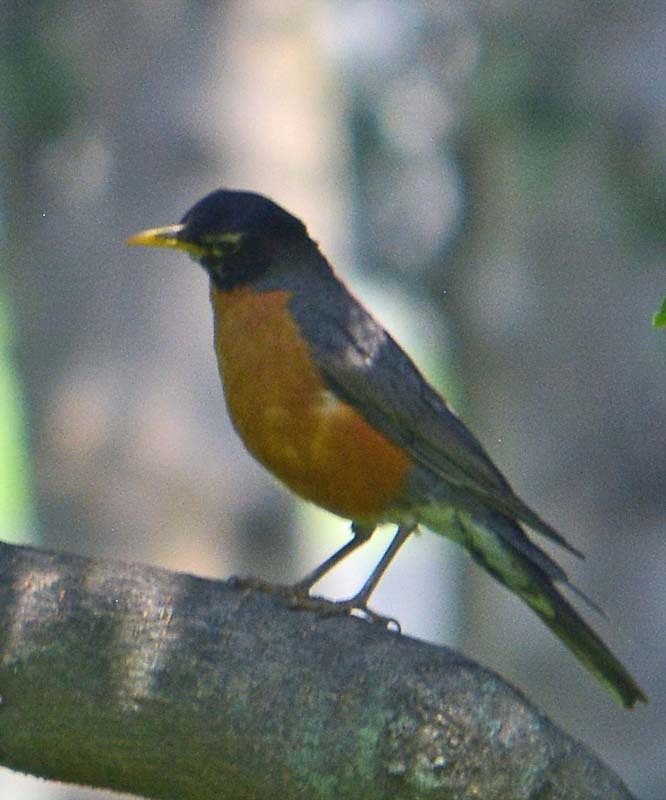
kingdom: Animalia
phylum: Chordata
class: Aves
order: Passeriformes
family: Turdidae
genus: Turdus
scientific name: Turdus migratorius
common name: American robin
